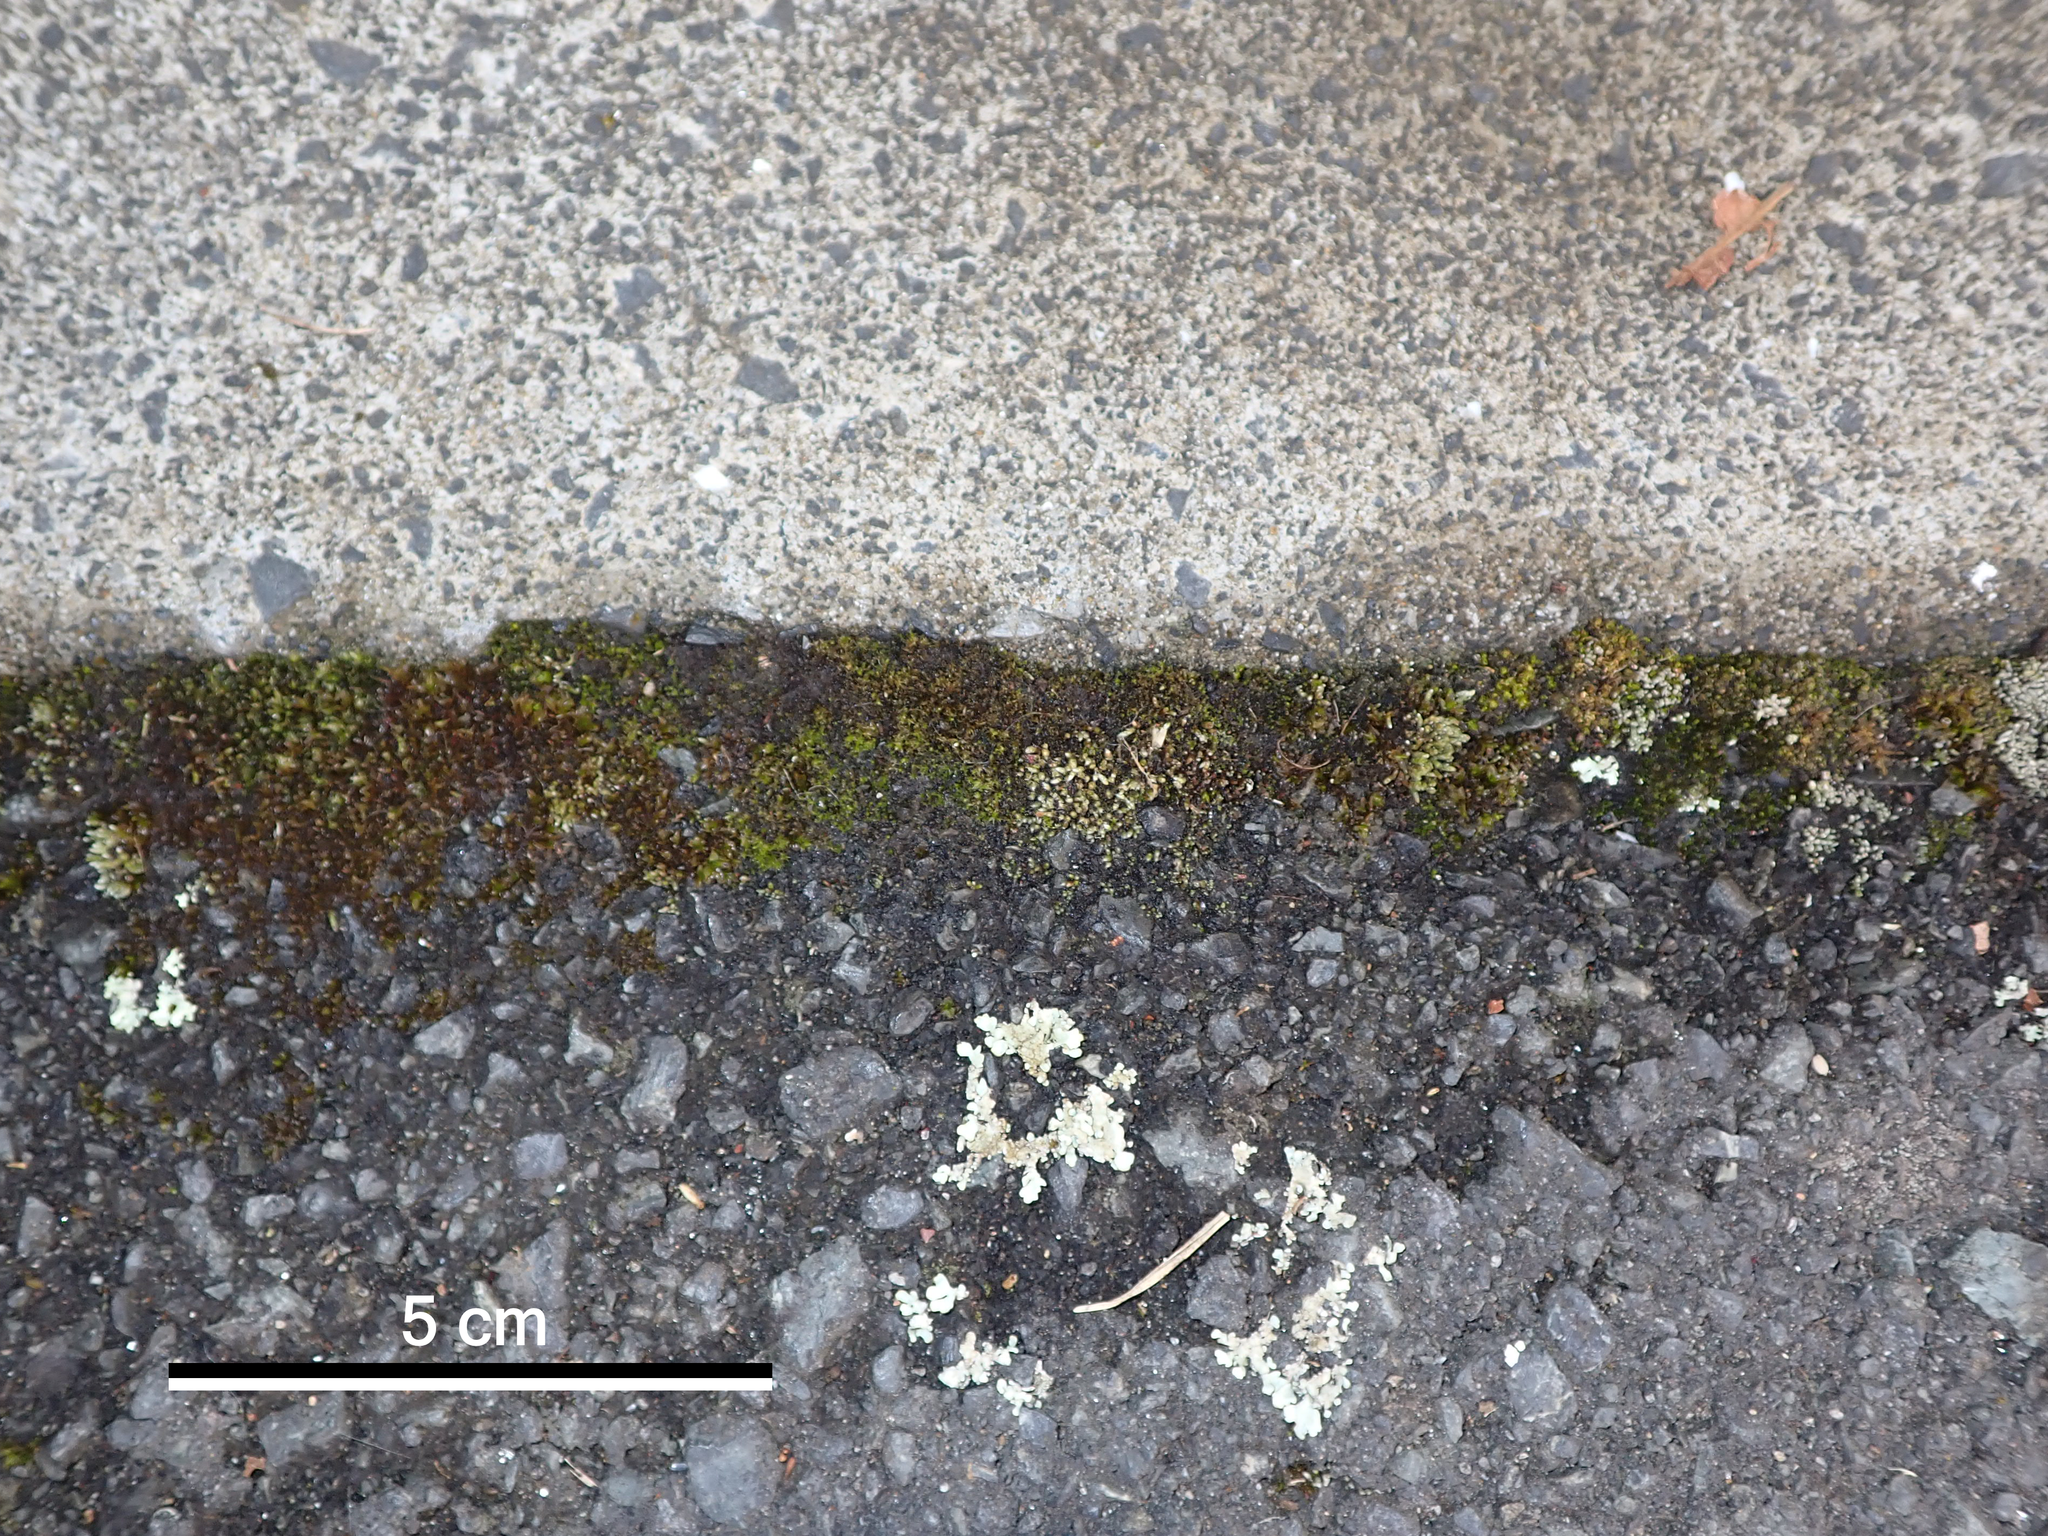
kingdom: Fungi
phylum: Ascomycota
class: Lecanoromycetes
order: Lecanorales
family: Parmeliaceae
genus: Xanthoparmelia
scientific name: Xanthoparmelia scabrosa
